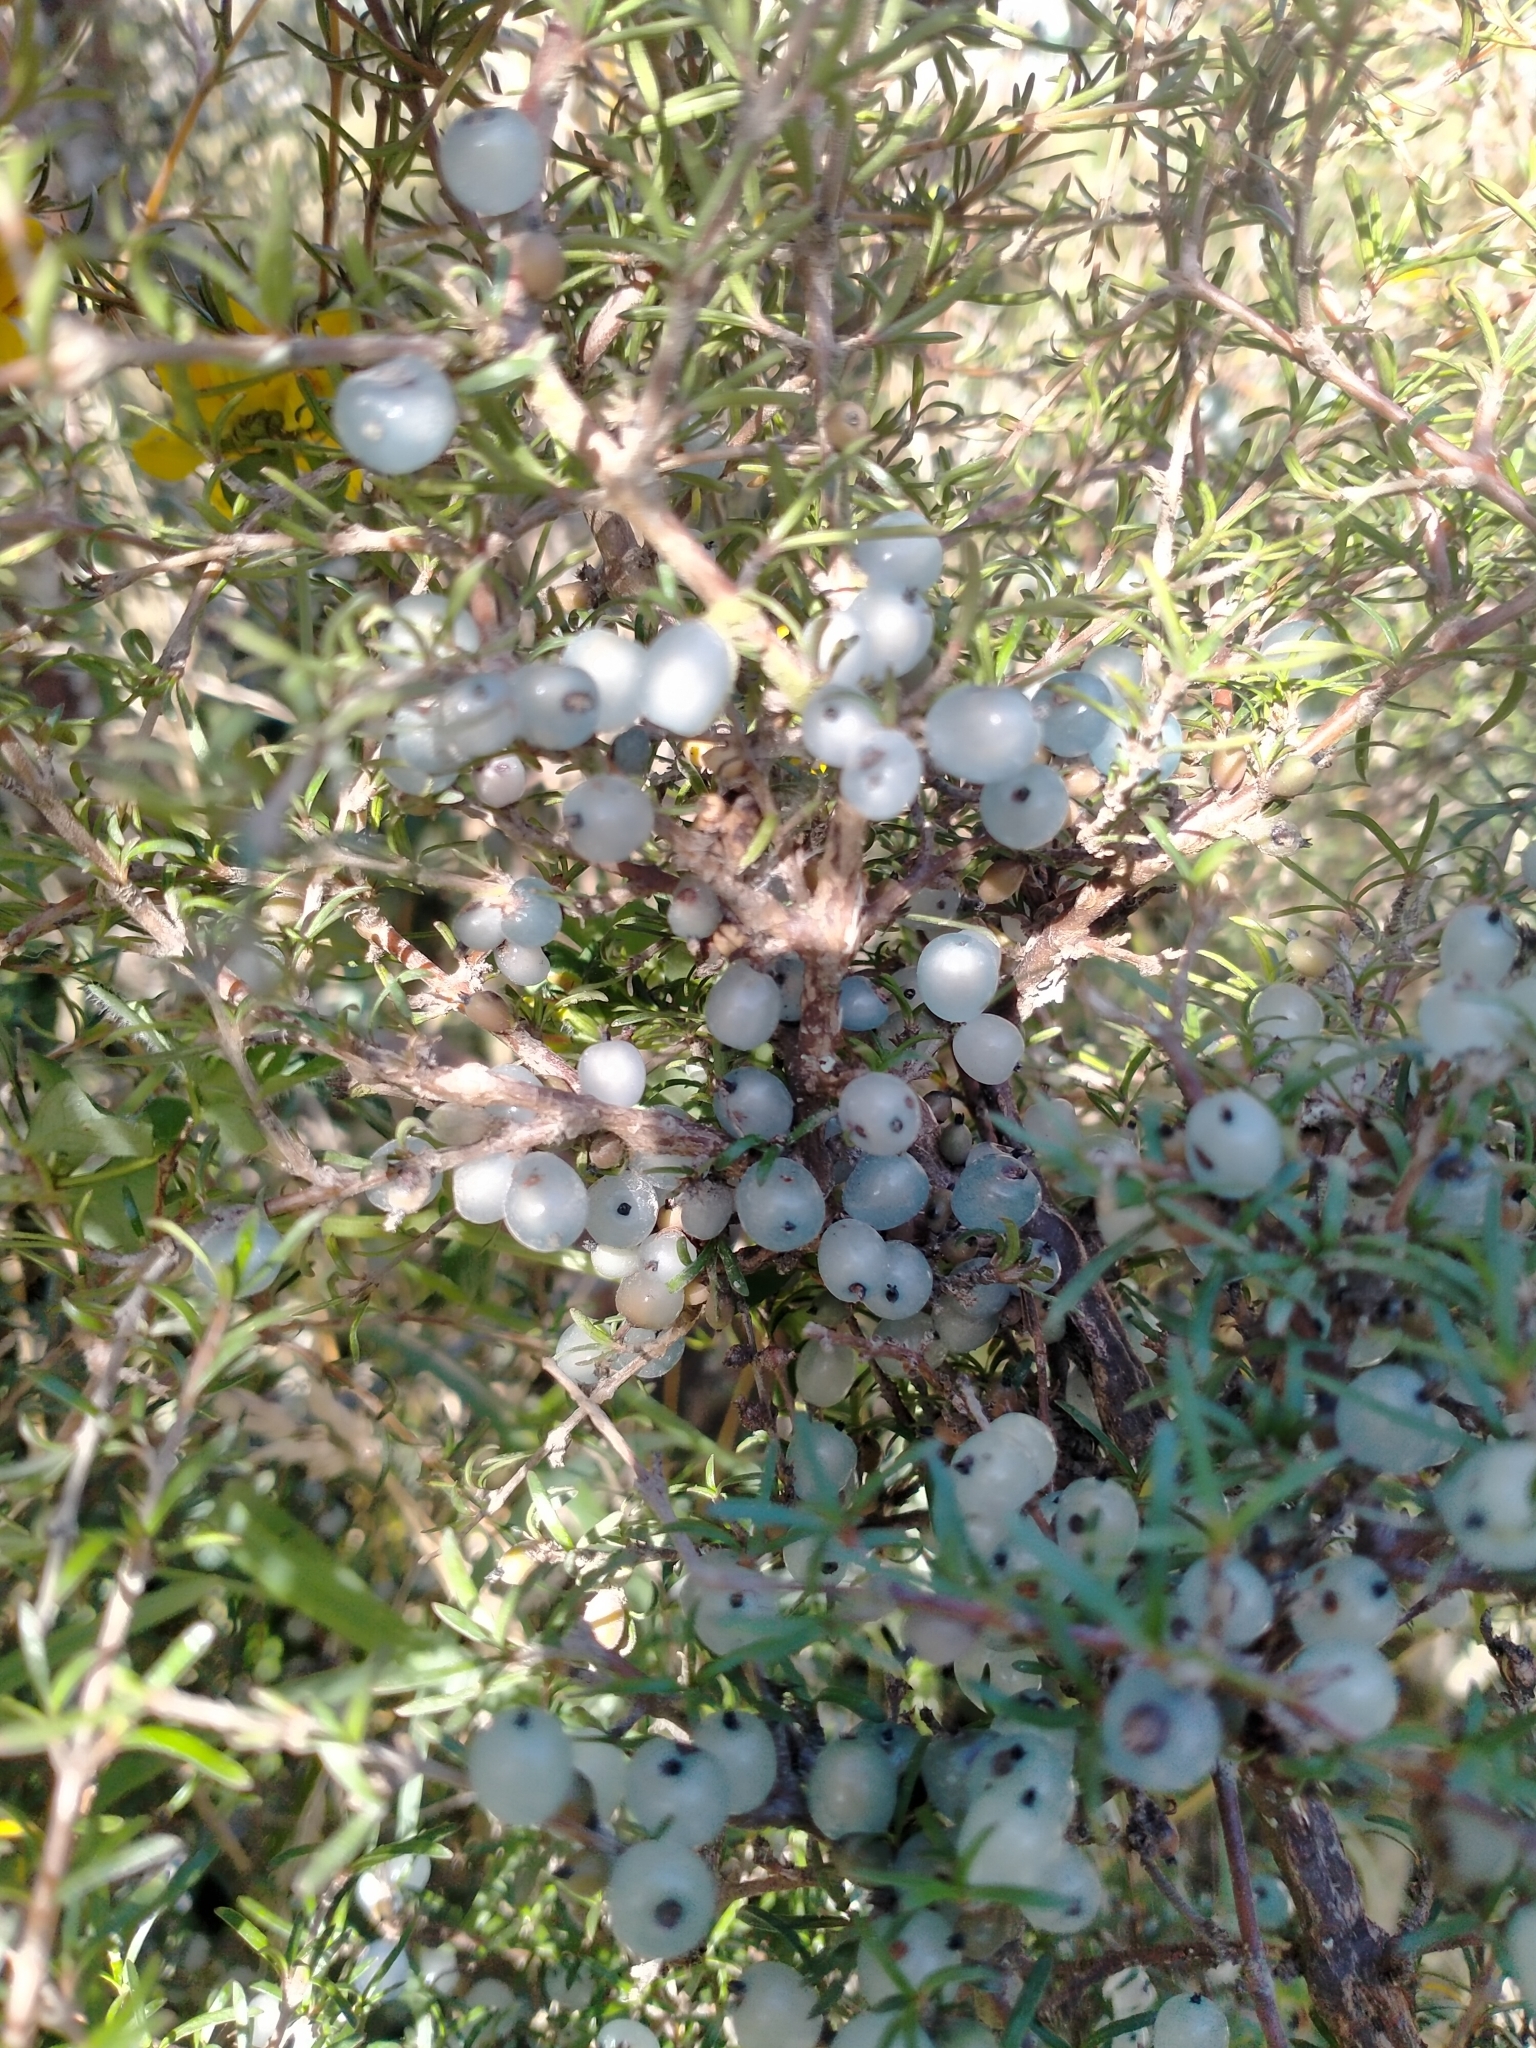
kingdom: Plantae
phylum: Tracheophyta
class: Magnoliopsida
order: Gentianales
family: Rubiaceae
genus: Coprosma
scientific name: Coprosma rugosa
